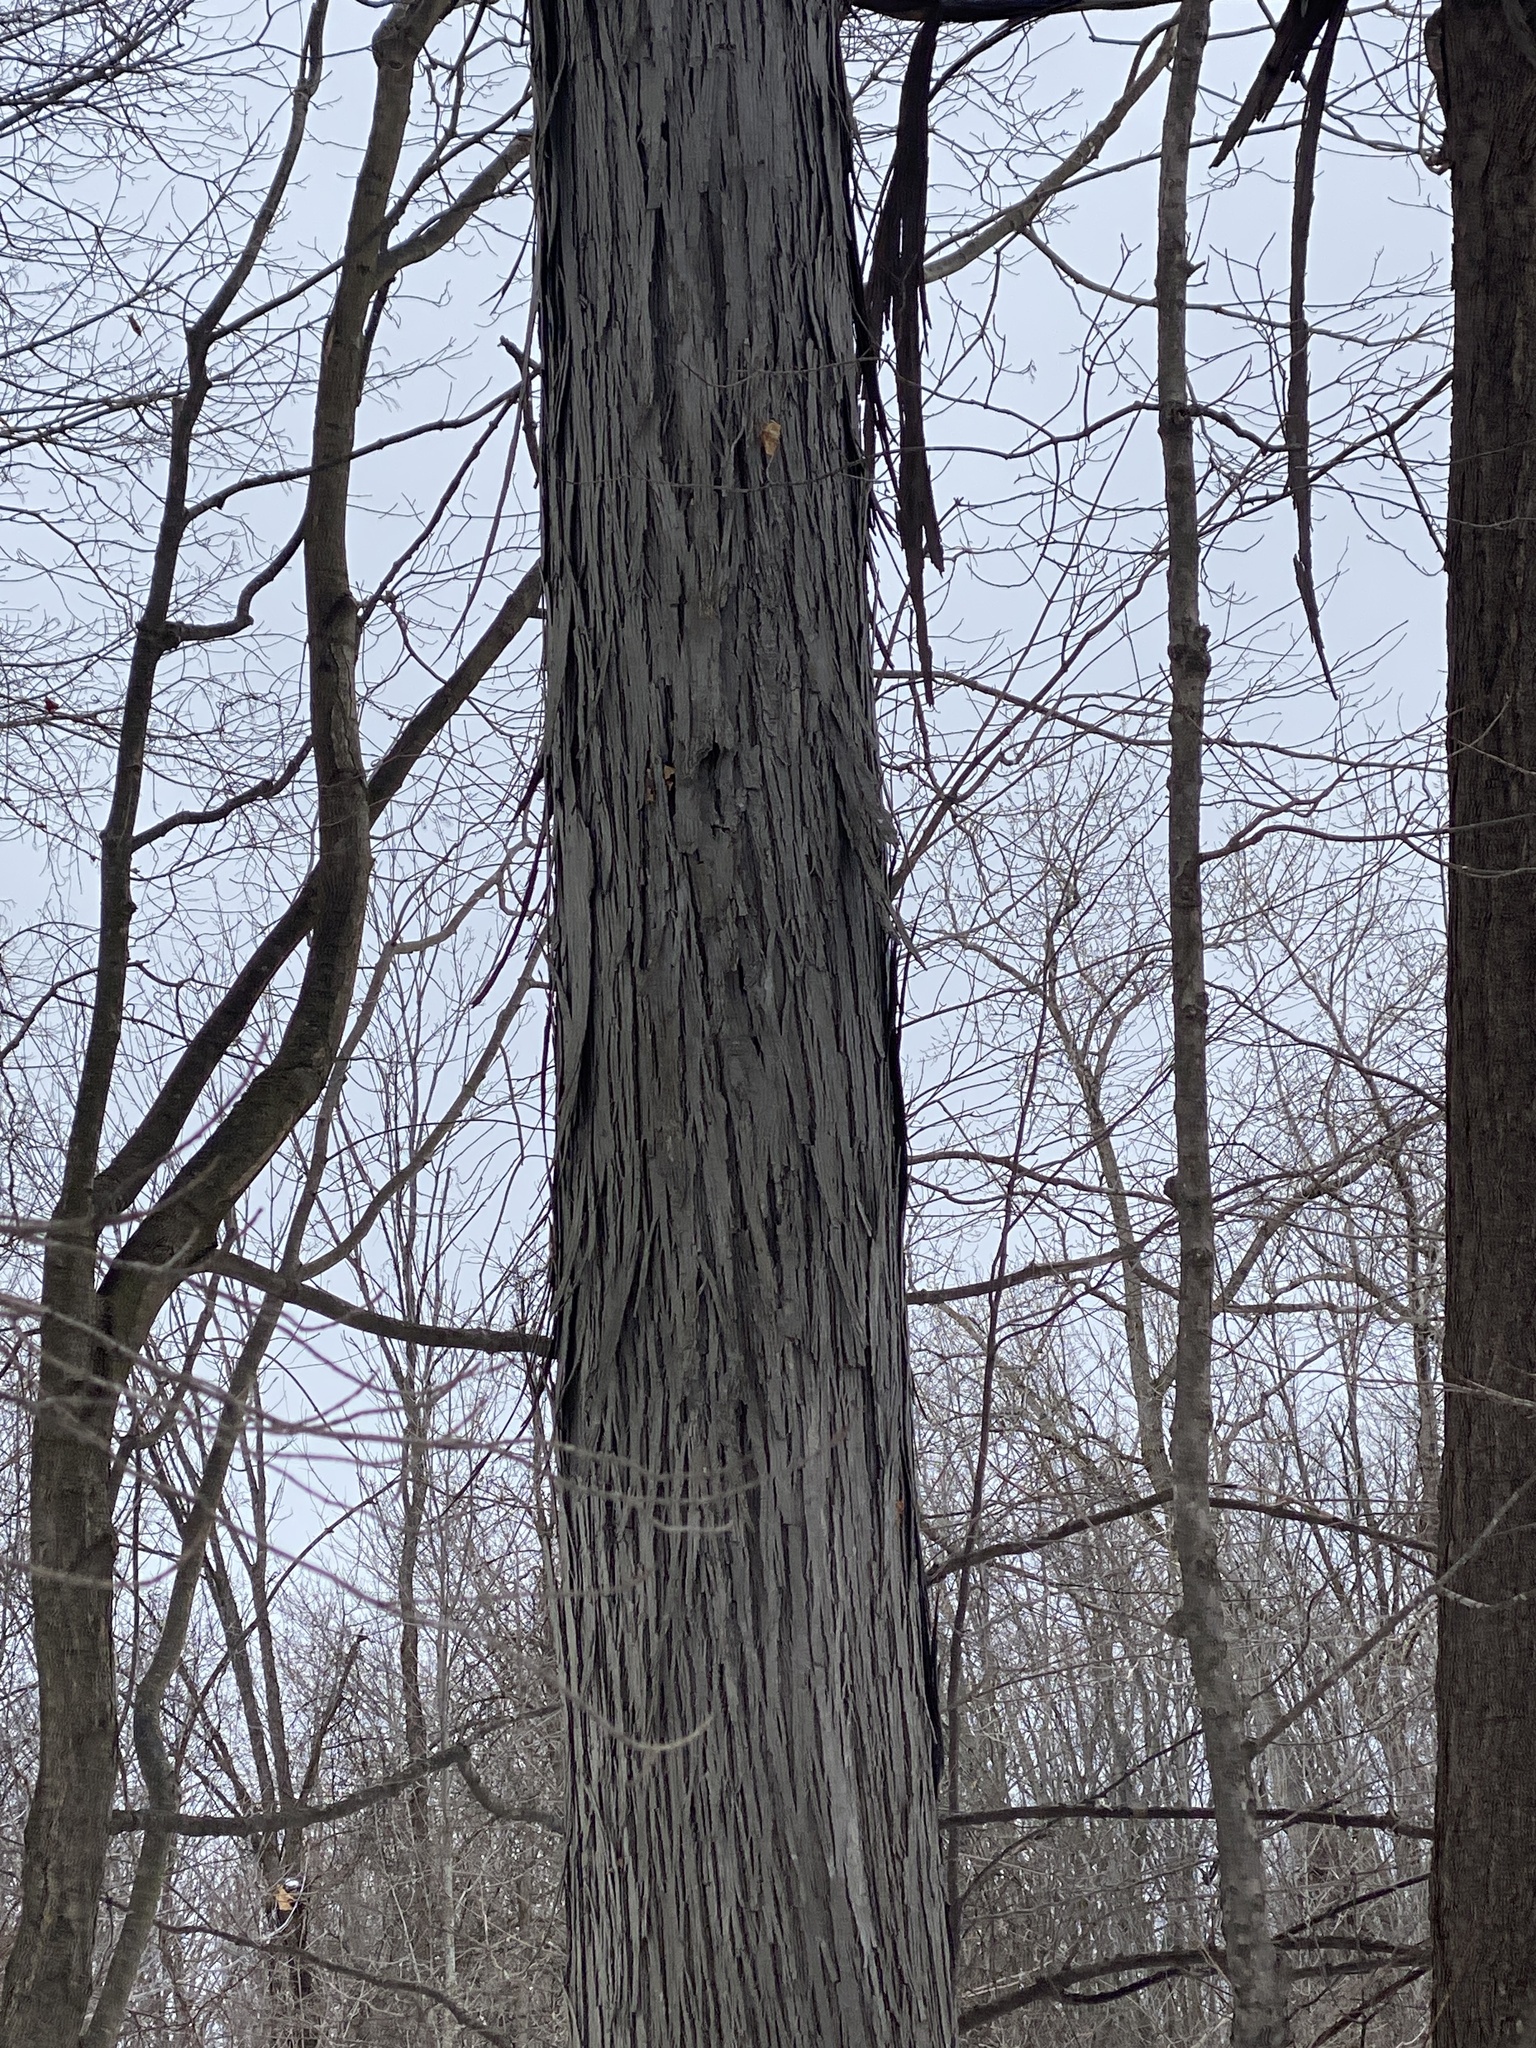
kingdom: Plantae
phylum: Tracheophyta
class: Magnoliopsida
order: Fagales
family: Juglandaceae
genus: Carya
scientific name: Carya ovata
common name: Shagbark hickory
